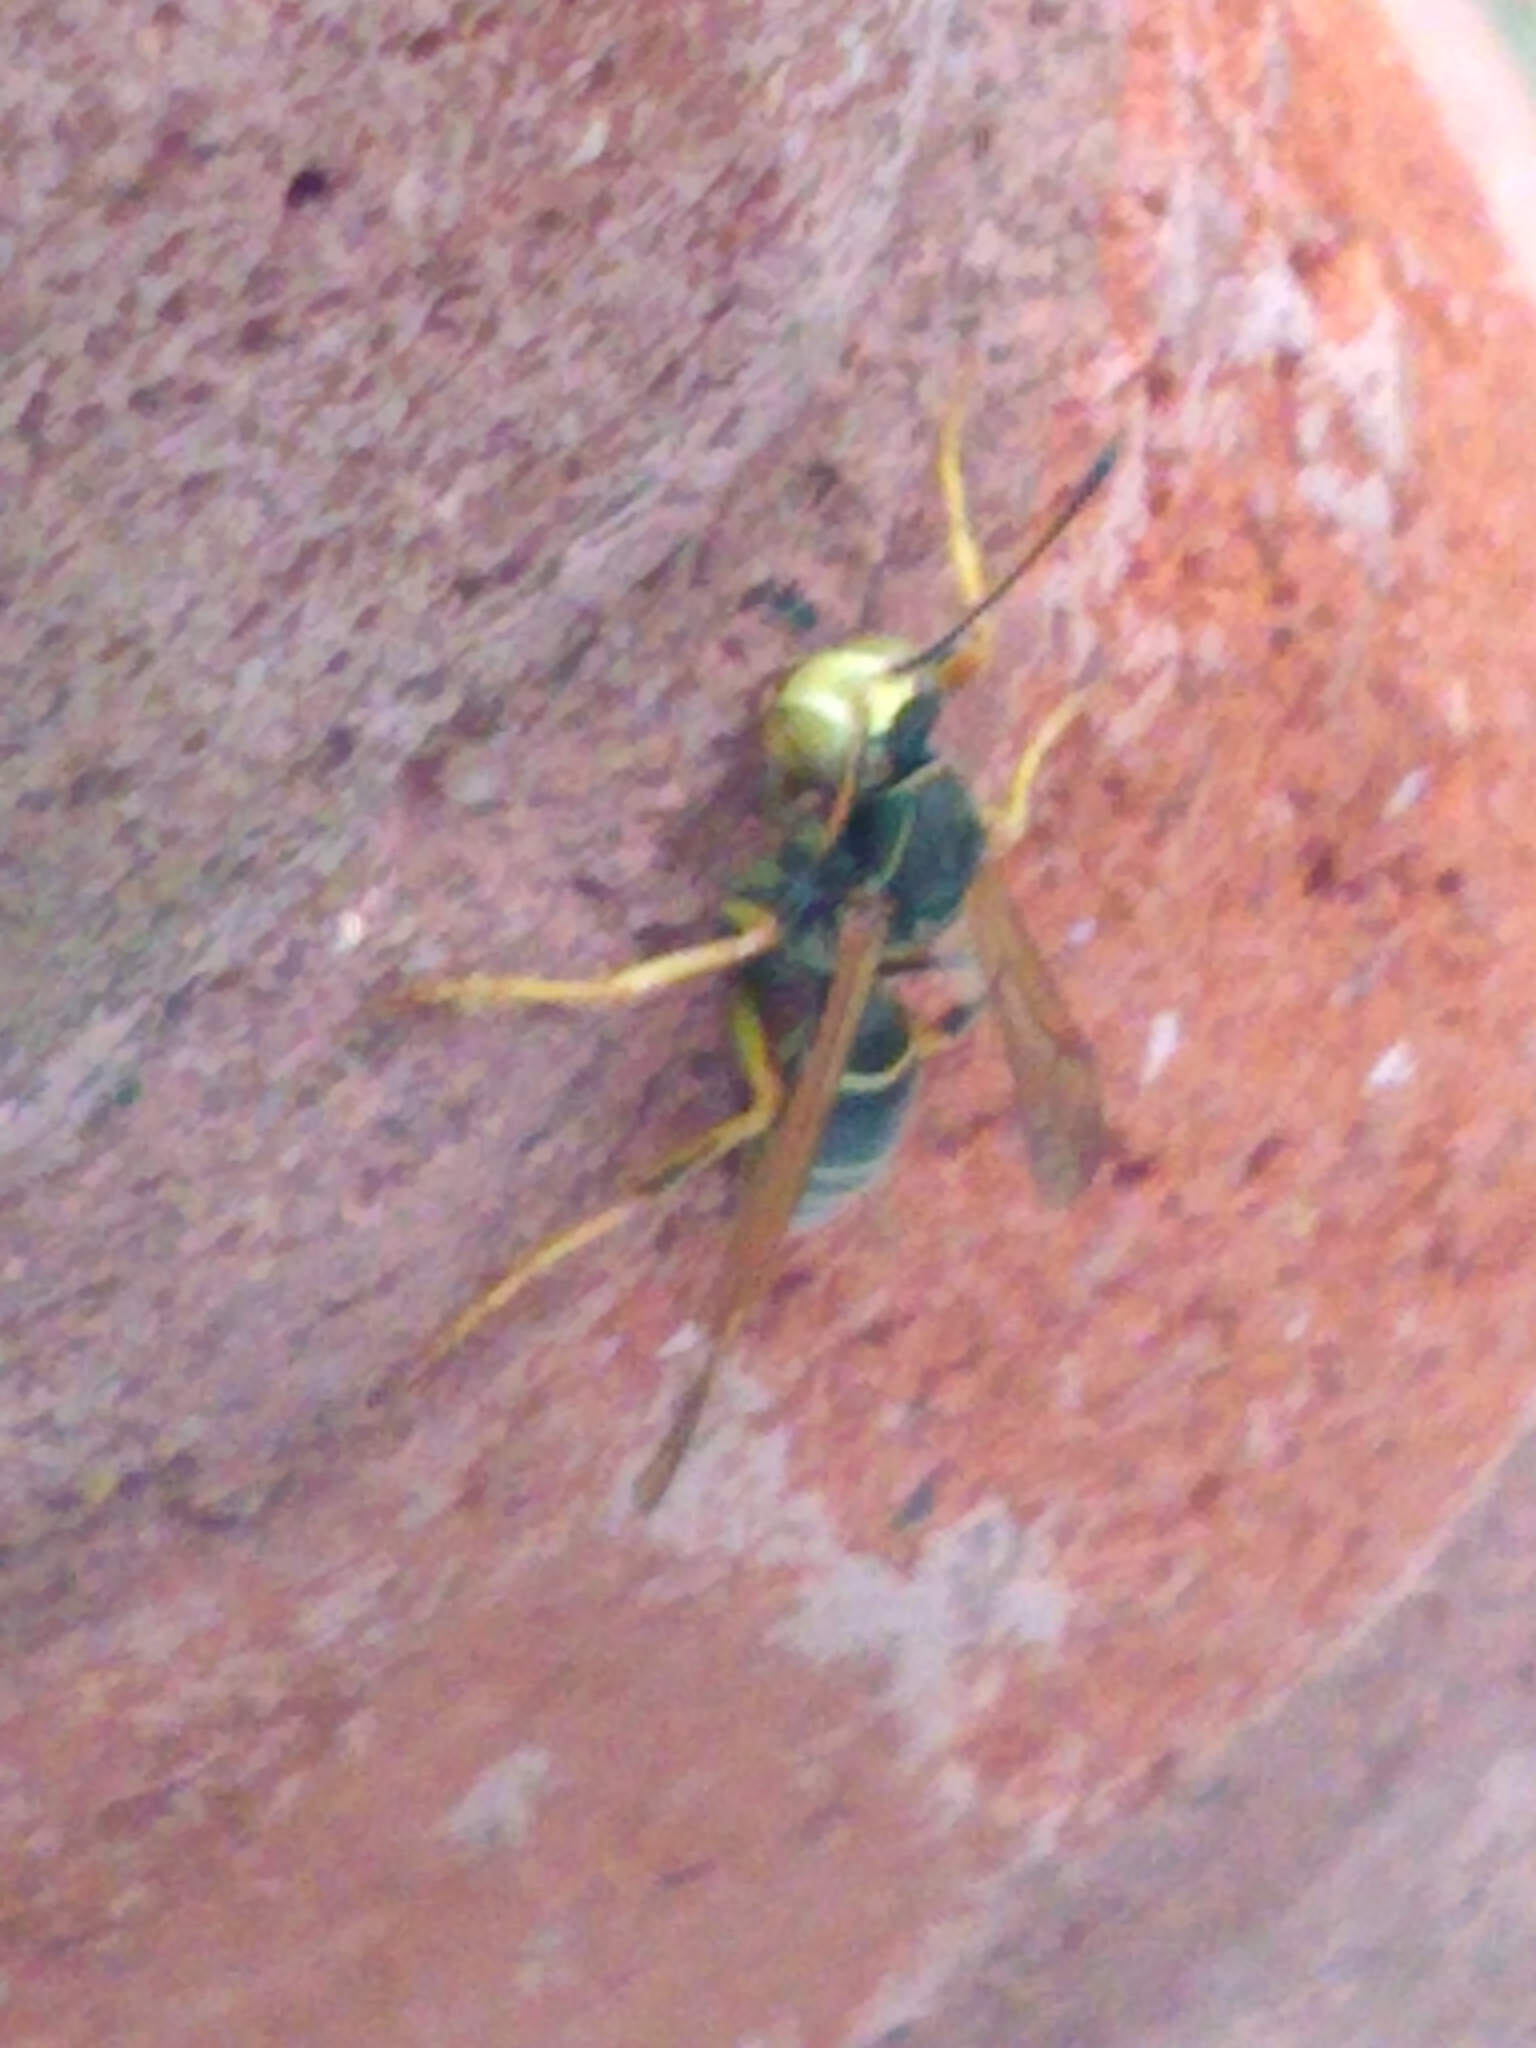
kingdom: Animalia
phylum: Arthropoda
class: Insecta
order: Hymenoptera
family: Eumenidae
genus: Polistes
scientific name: Polistes fuscatus
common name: Dark paper wasp
